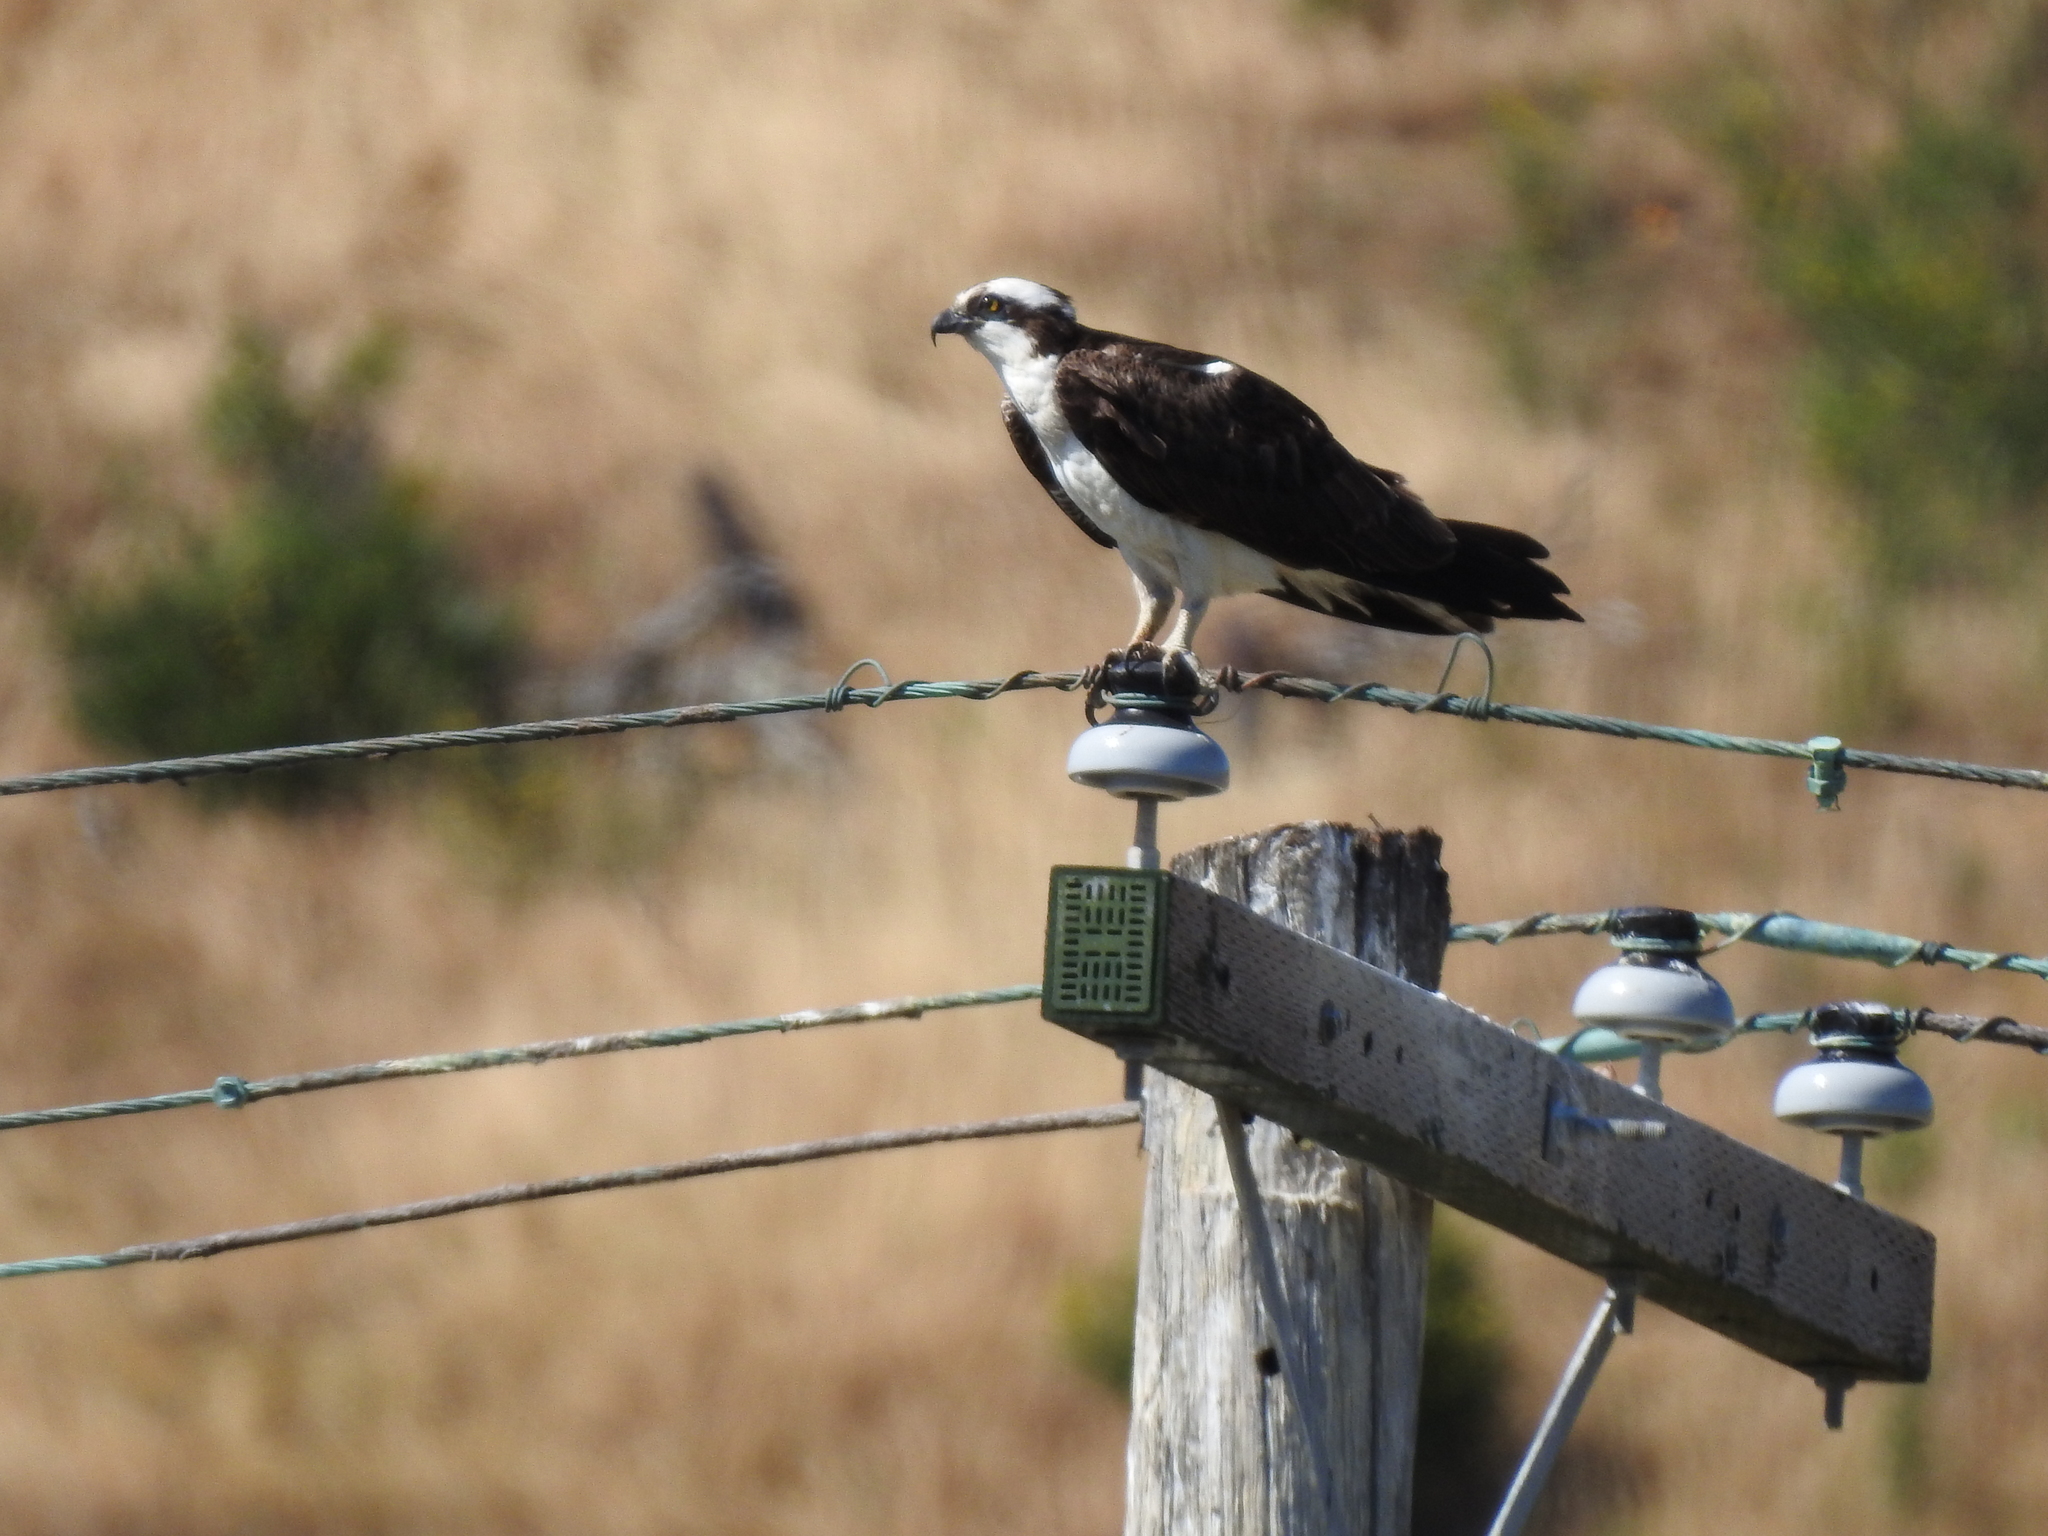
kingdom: Animalia
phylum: Chordata
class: Aves
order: Accipitriformes
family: Pandionidae
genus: Pandion
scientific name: Pandion haliaetus
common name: Osprey
